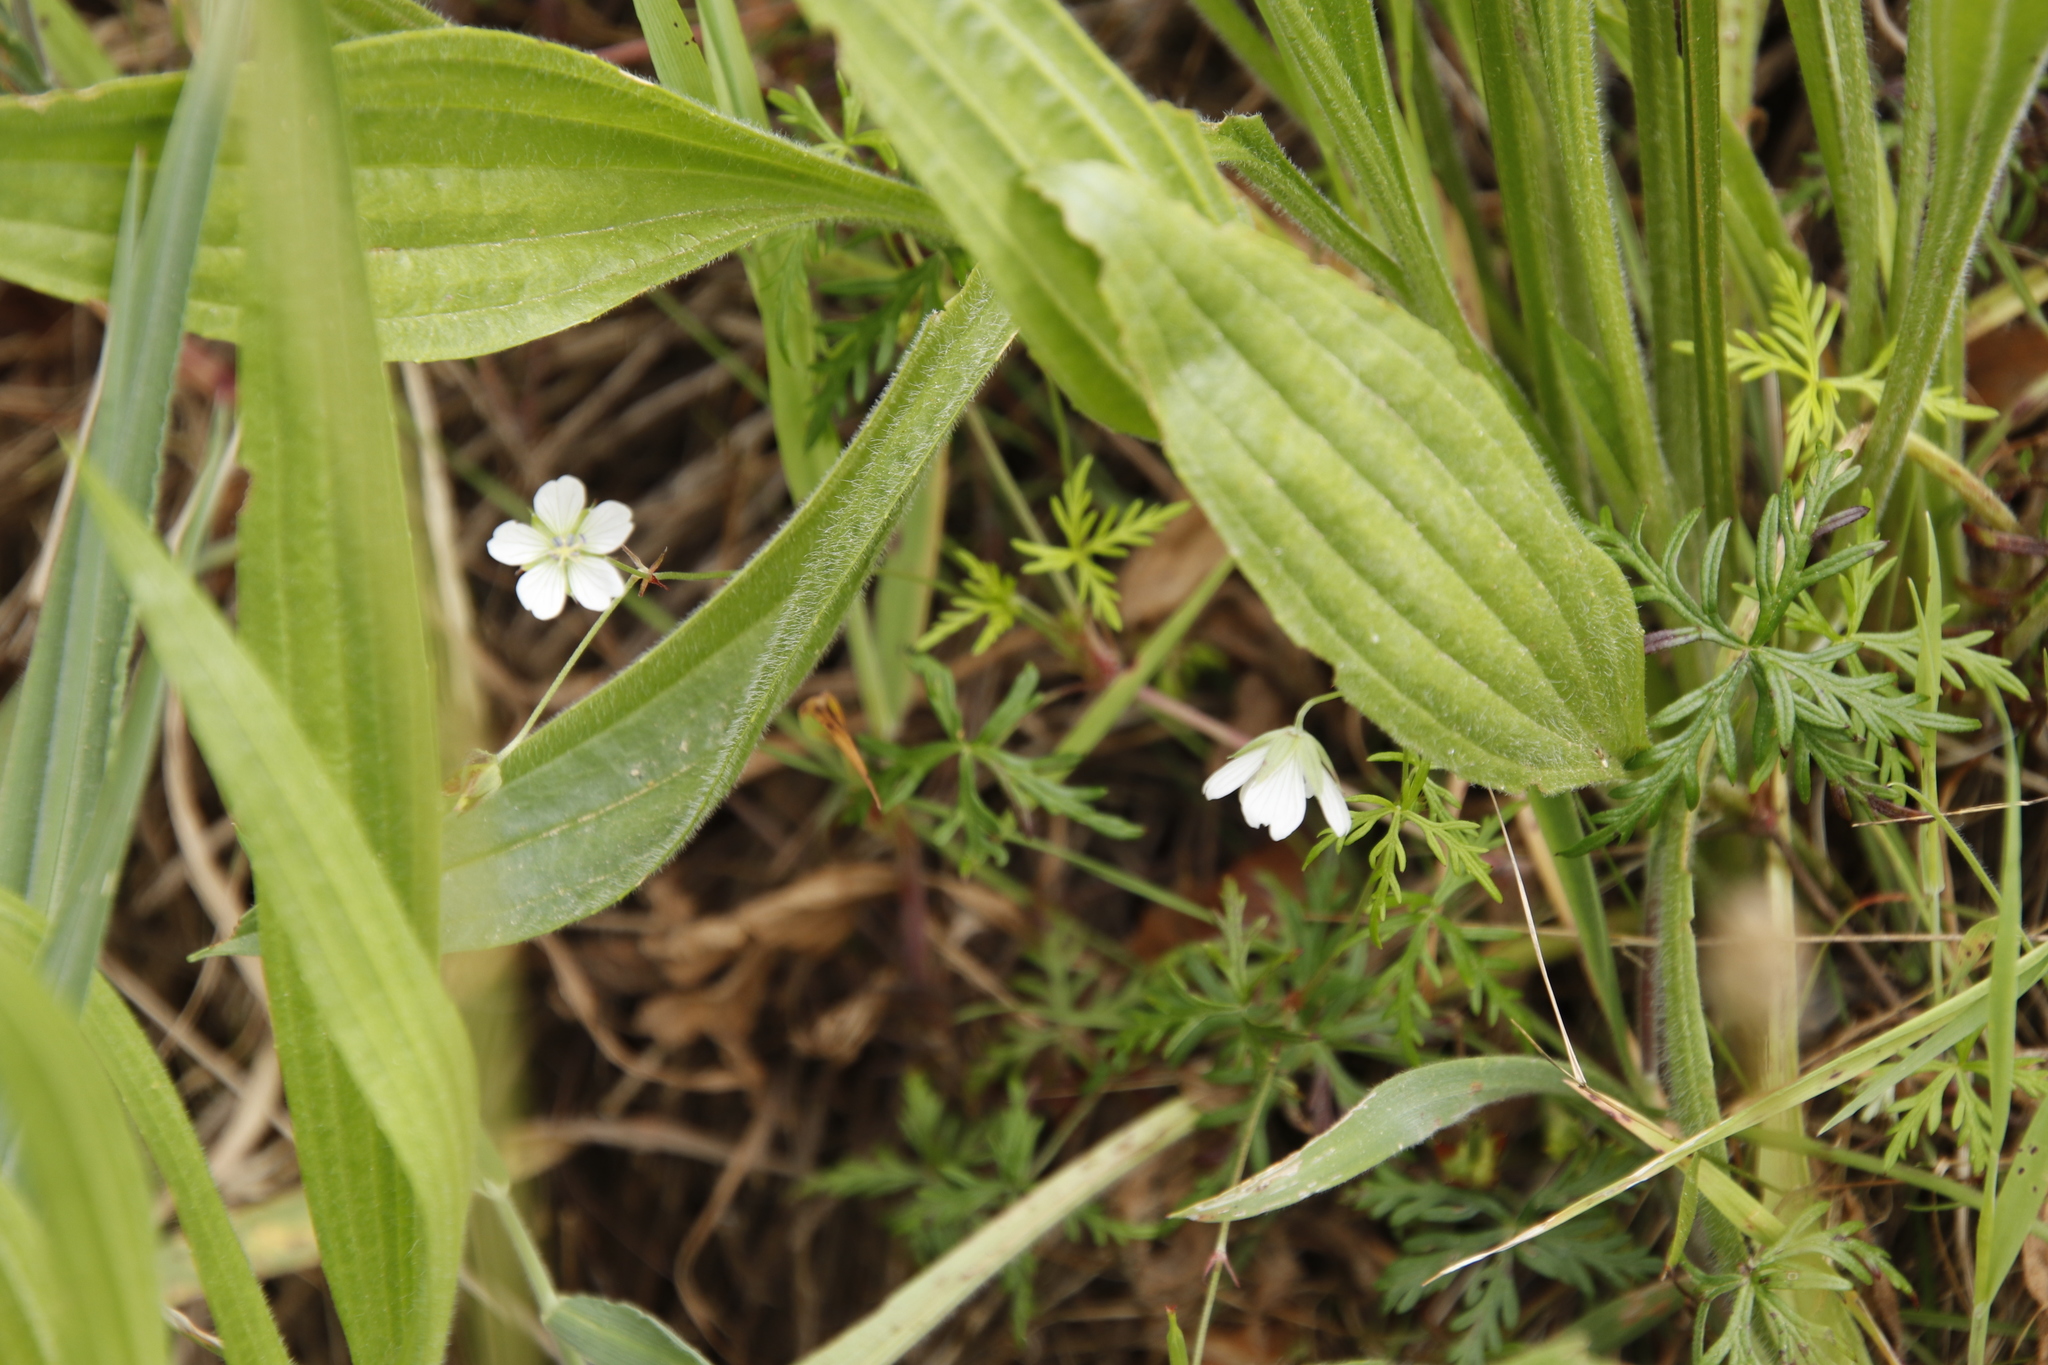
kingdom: Plantae
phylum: Tracheophyta
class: Magnoliopsida
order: Geraniales
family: Geraniaceae
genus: Geranium
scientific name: Geranium incanum
